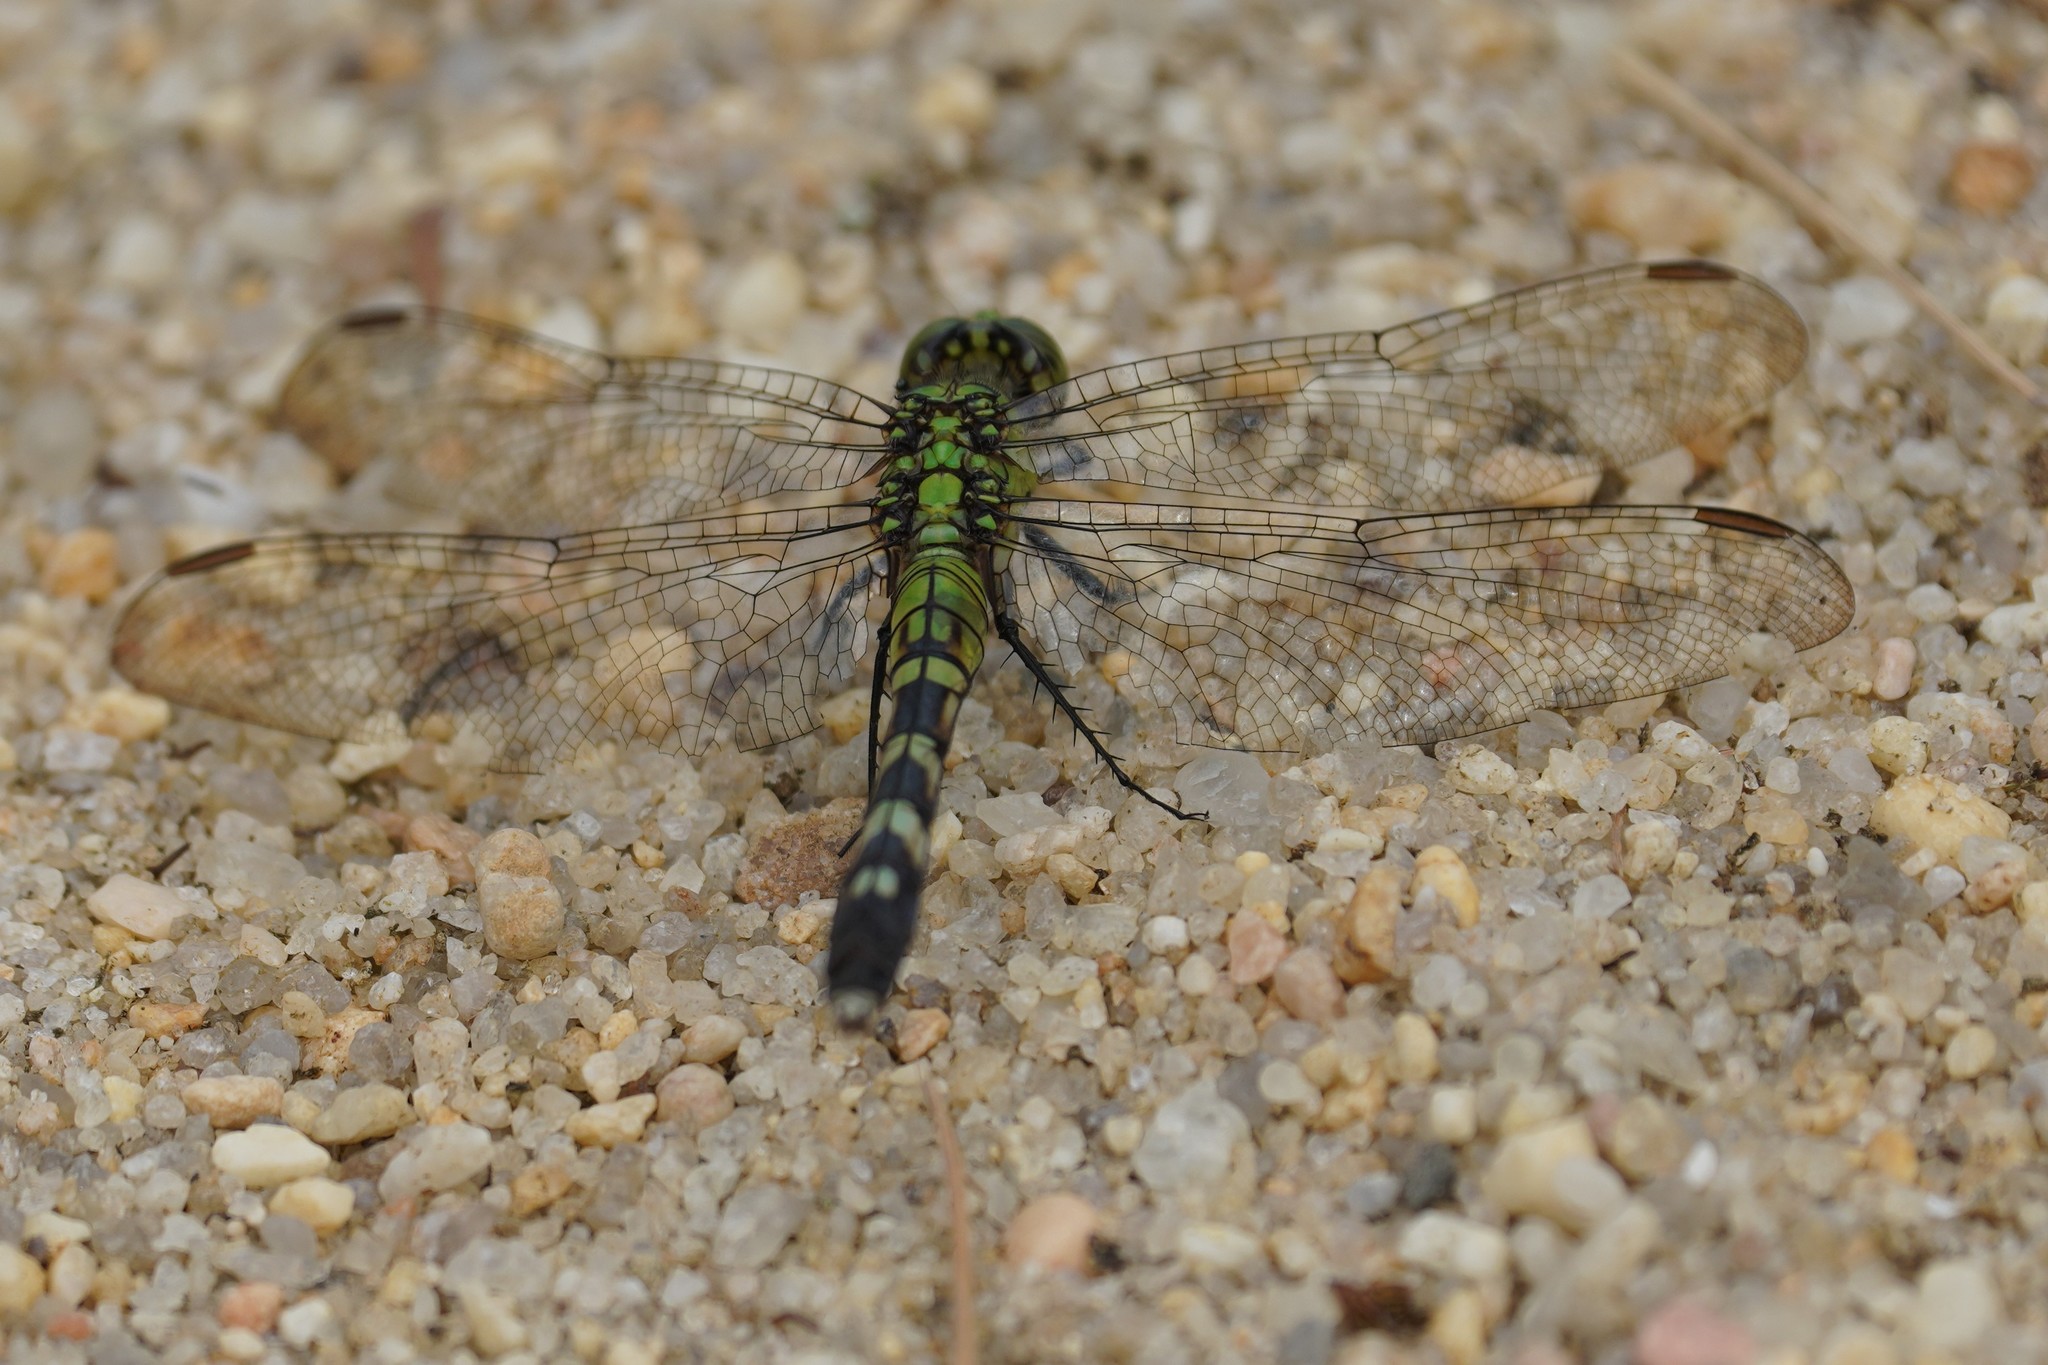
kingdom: Animalia
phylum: Arthropoda
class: Insecta
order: Odonata
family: Libellulidae
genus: Erythemis
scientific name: Erythemis simplicicollis
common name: Eastern pondhawk
